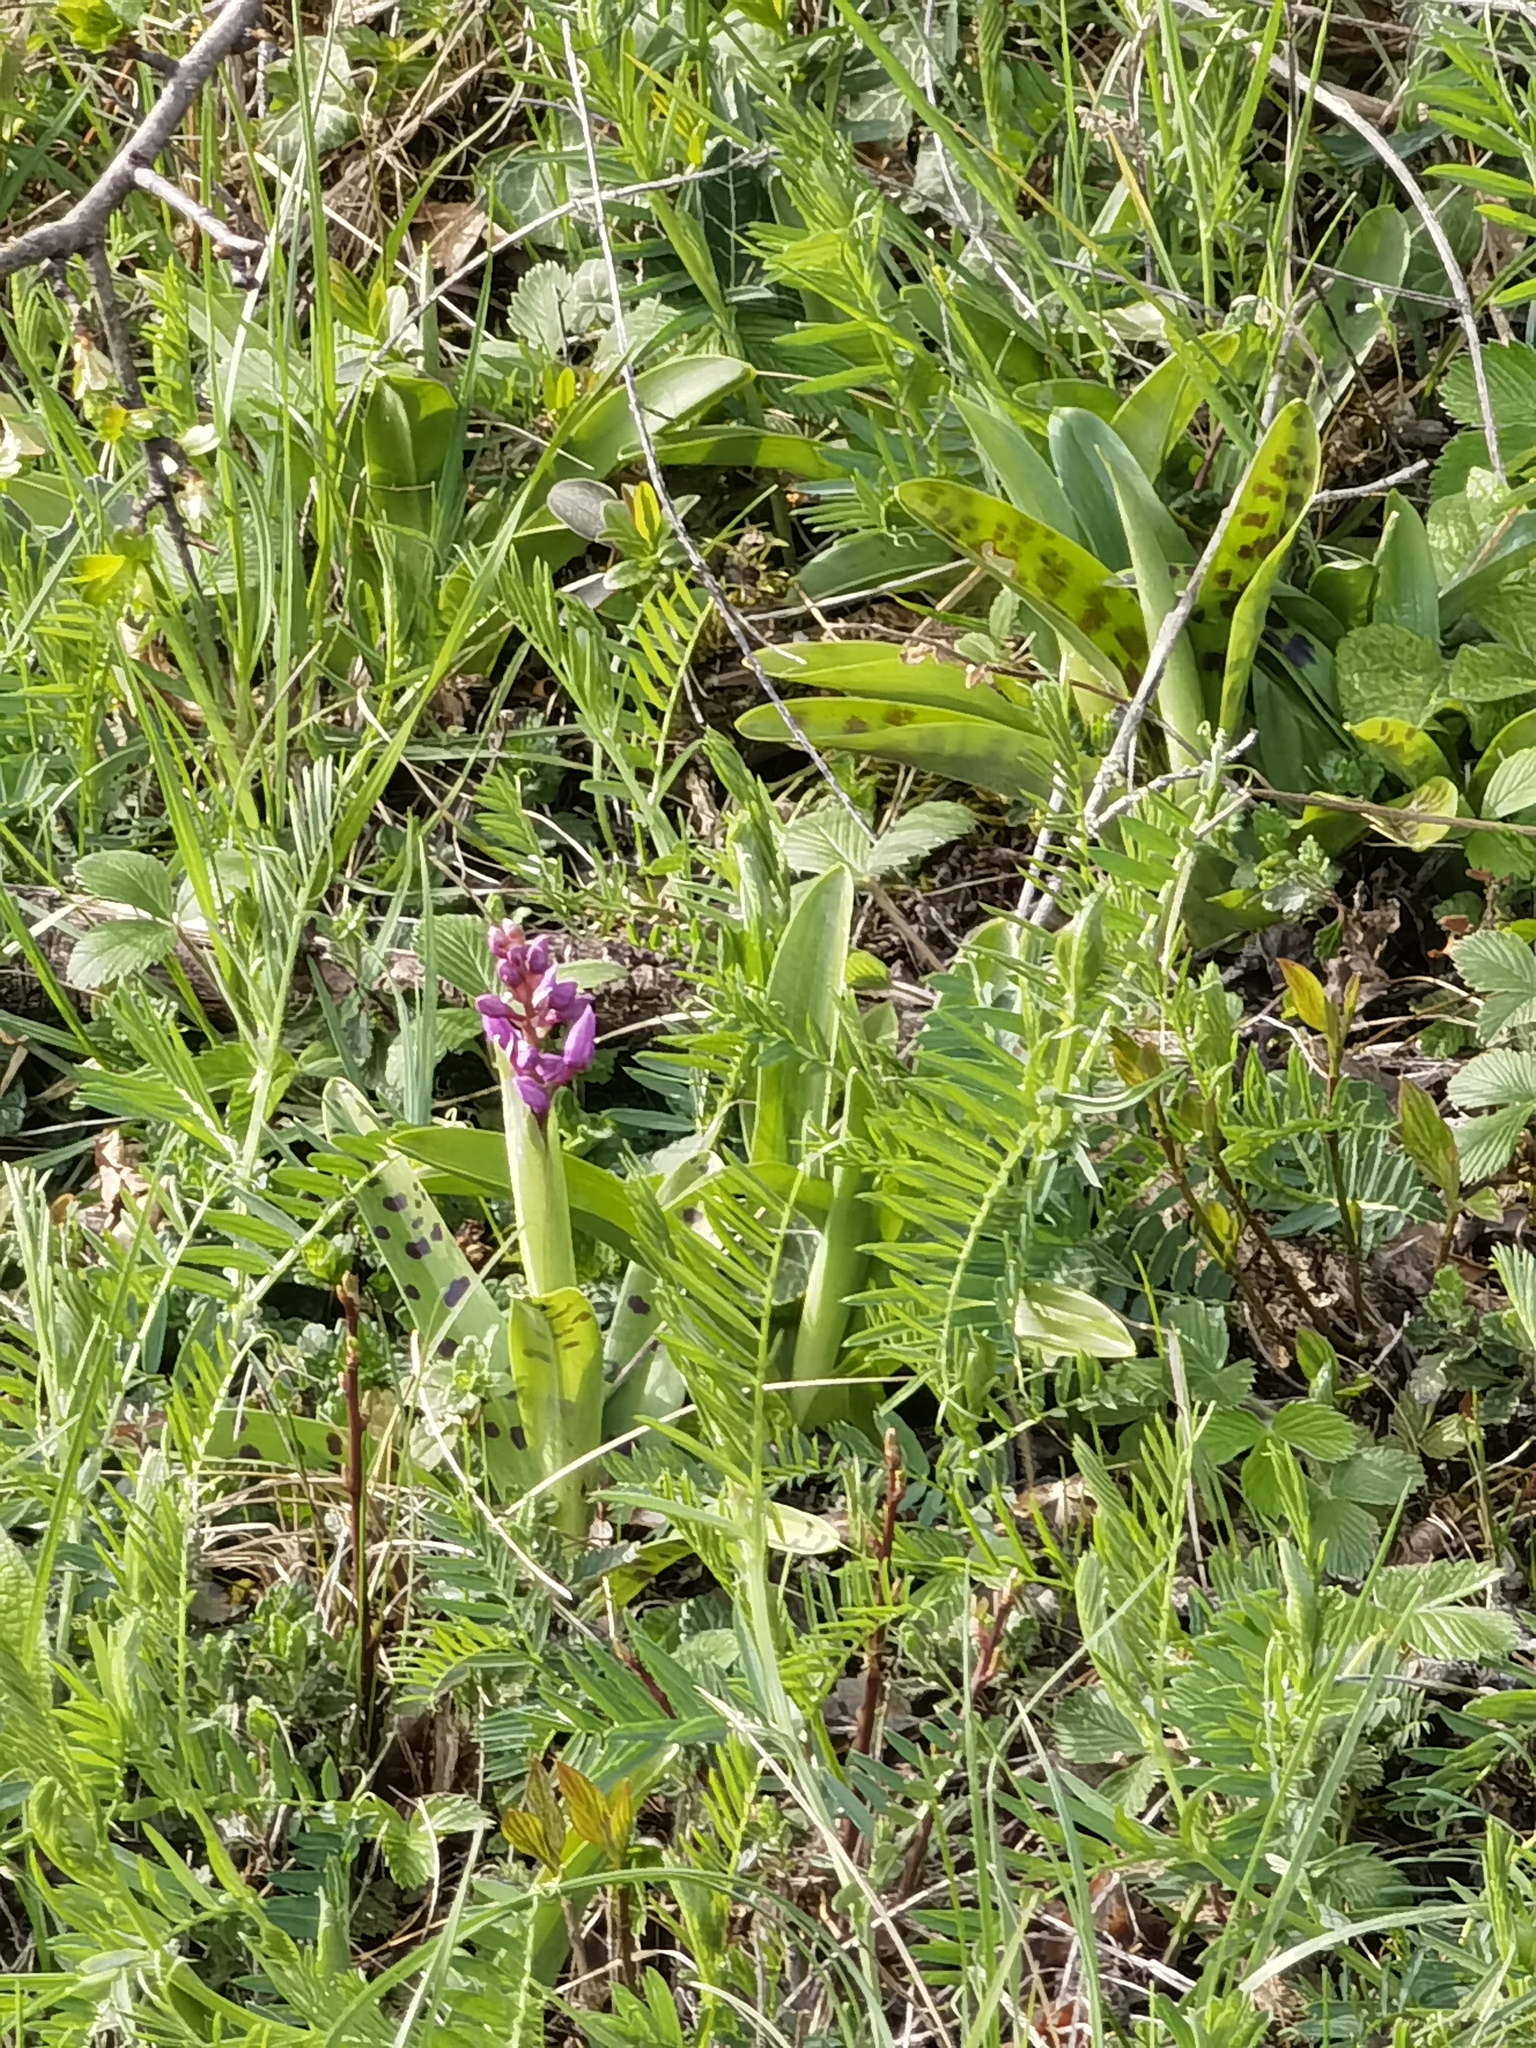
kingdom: Plantae
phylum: Tracheophyta
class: Liliopsida
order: Asparagales
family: Orchidaceae
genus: Orchis
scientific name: Orchis mascula
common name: Early-purple orchid
